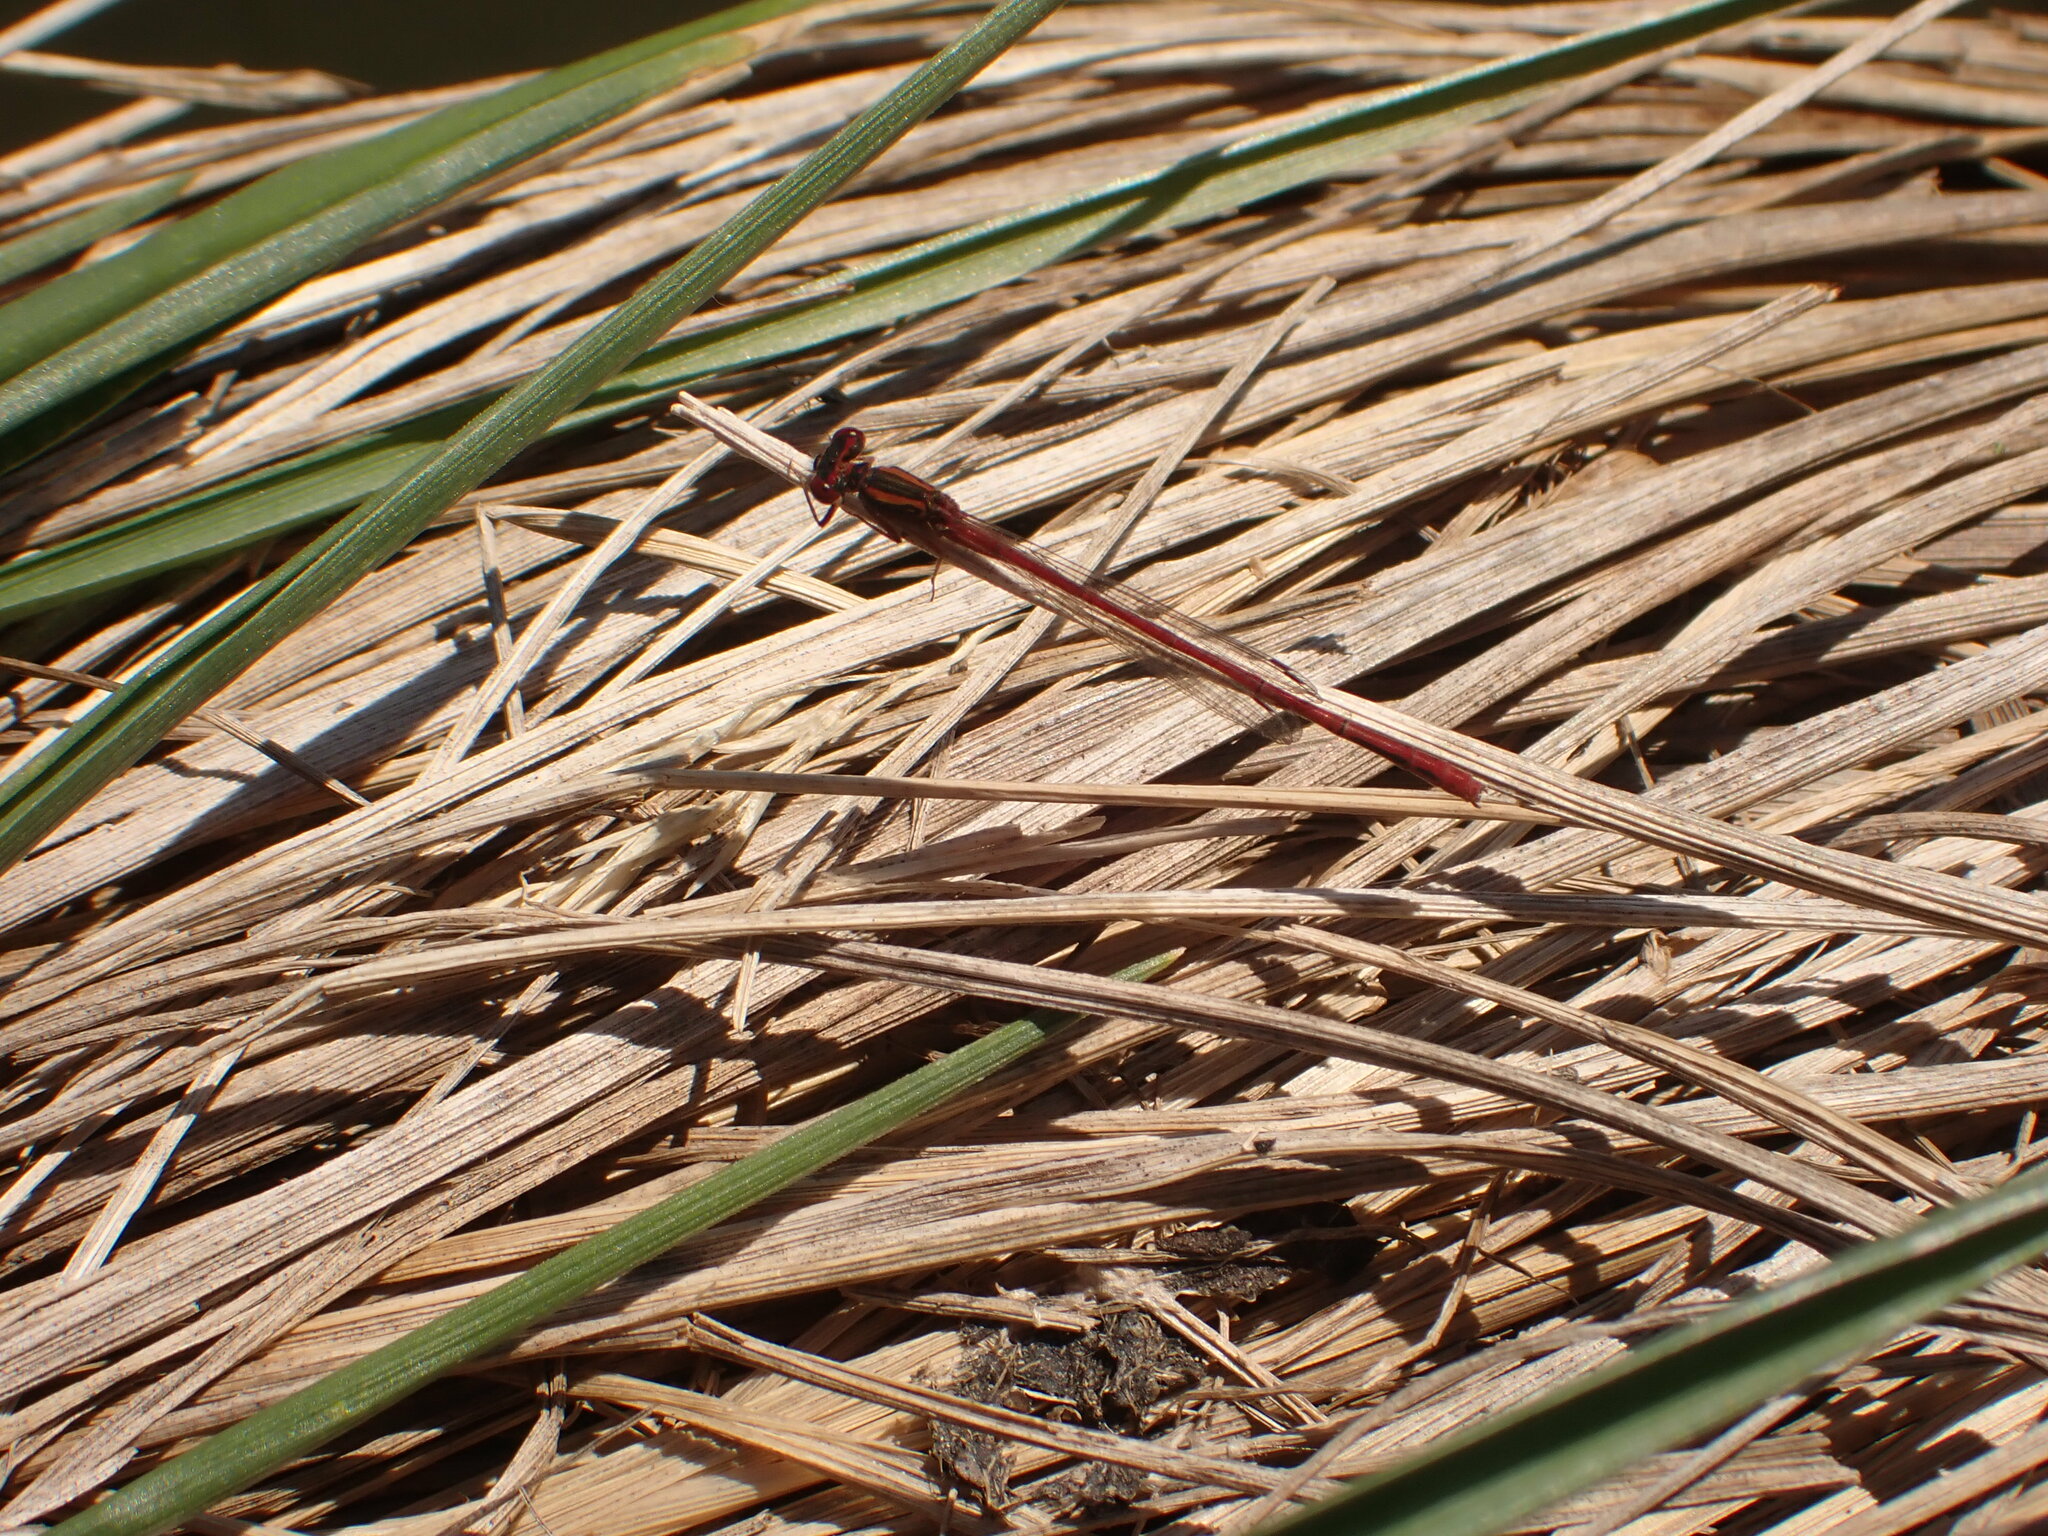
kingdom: Animalia
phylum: Arthropoda
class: Insecta
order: Odonata
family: Coenagrionidae
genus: Xanthocnemis
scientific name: Xanthocnemis zealandica
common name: Common redcoat damselfly
